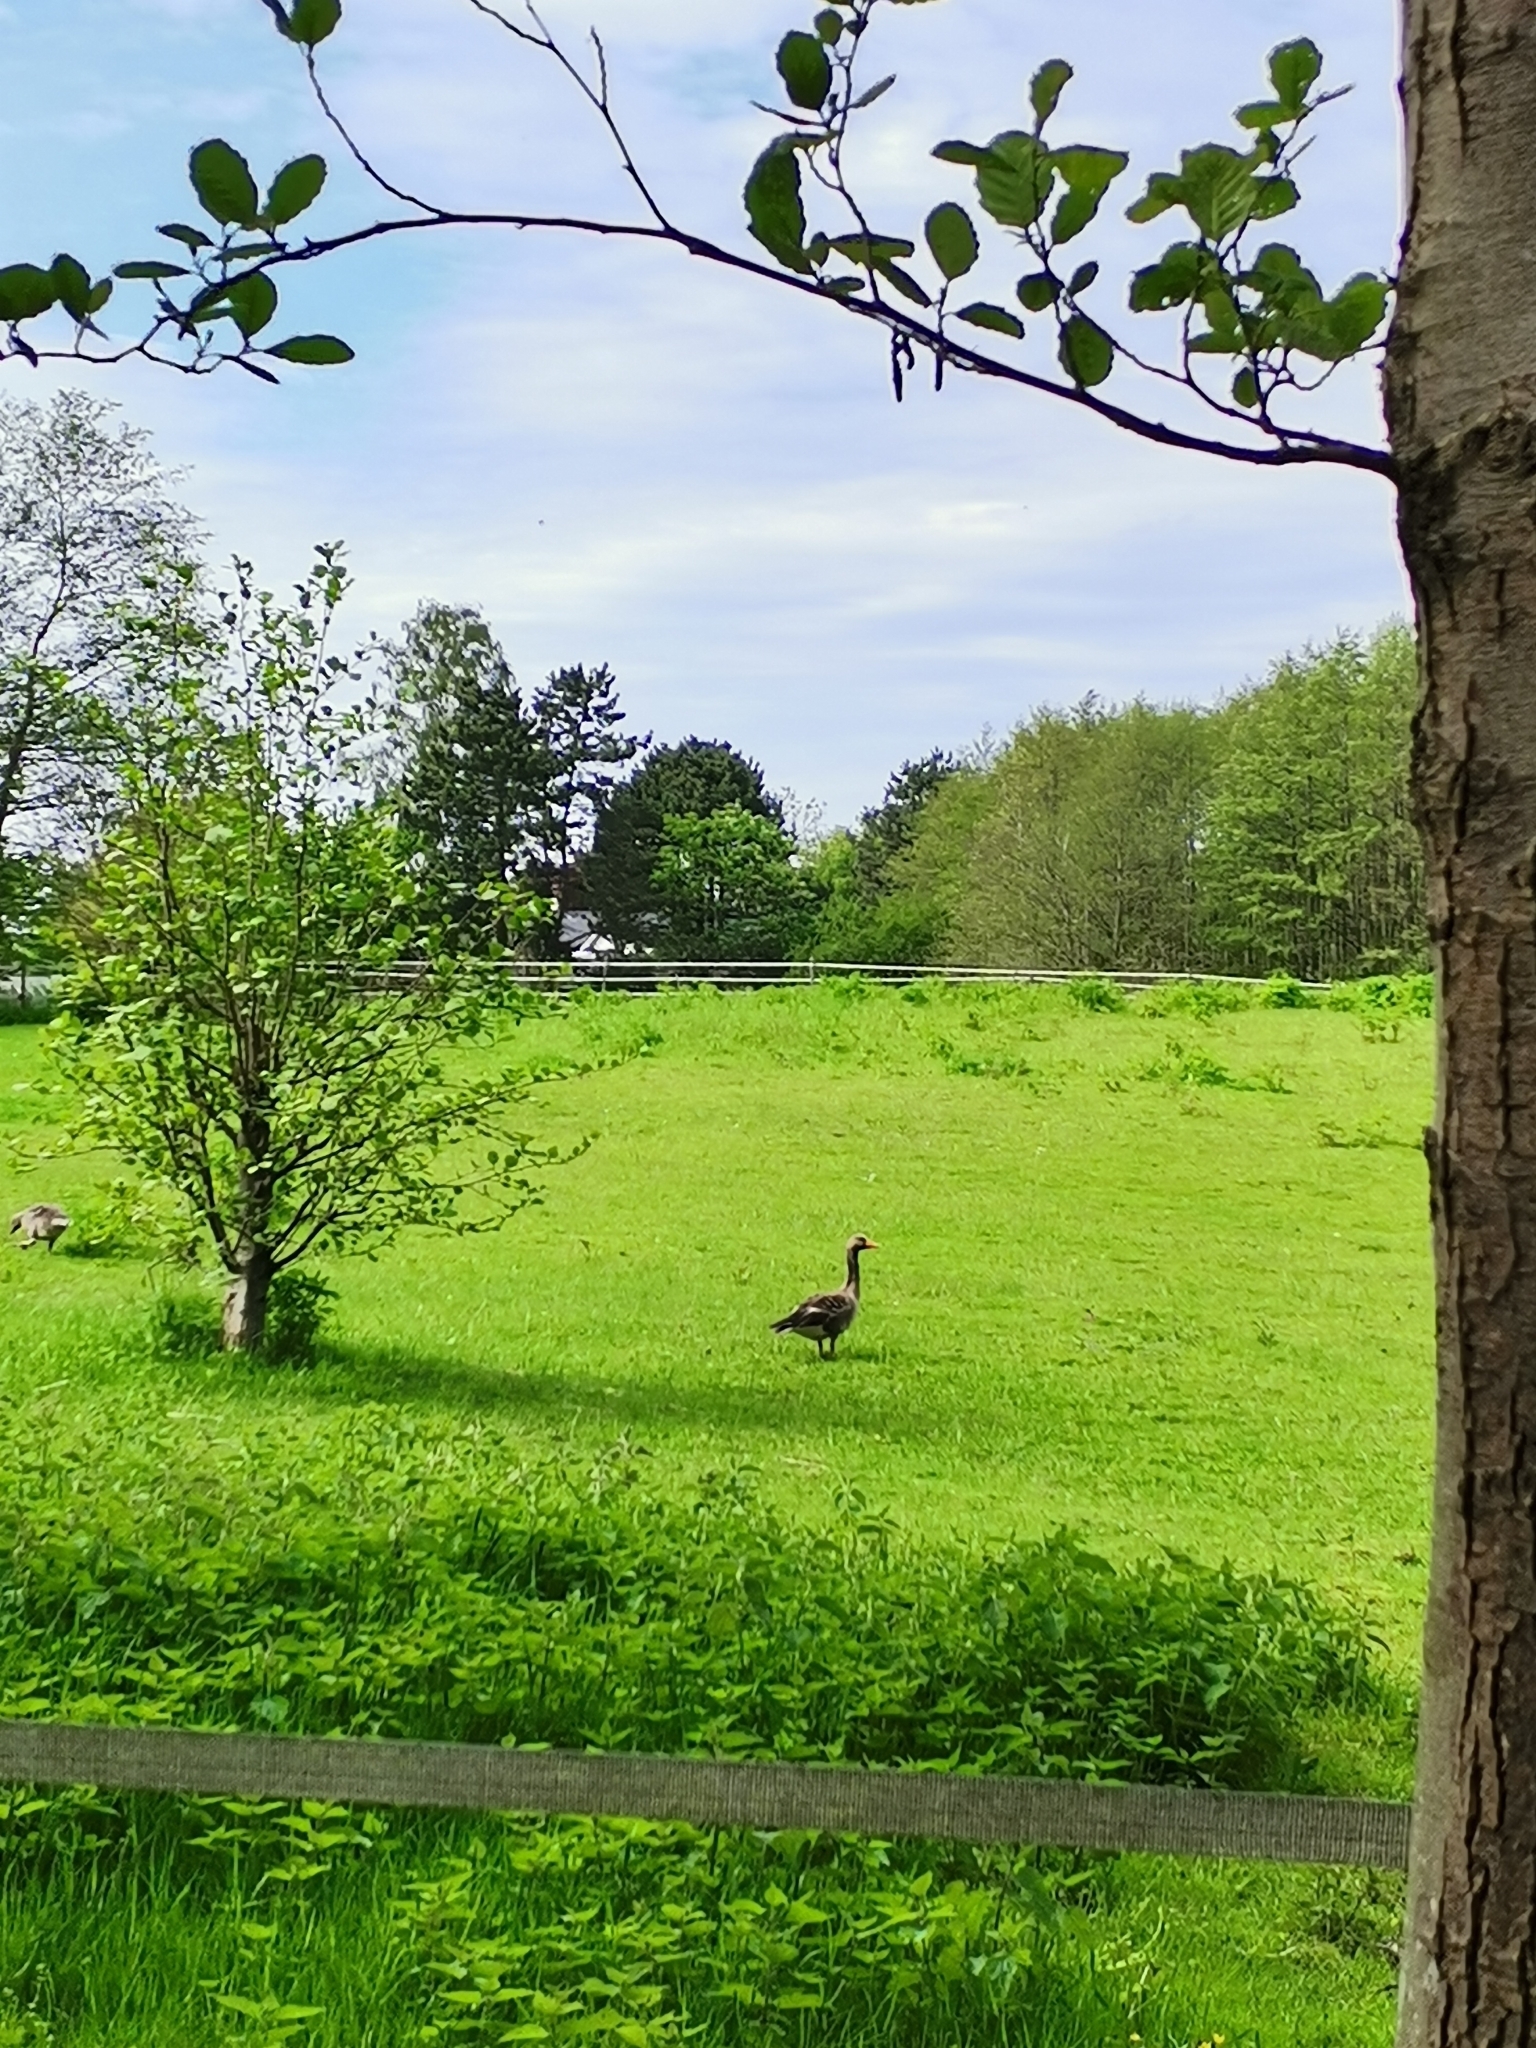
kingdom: Animalia
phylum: Chordata
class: Aves
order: Anseriformes
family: Anatidae
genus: Anser
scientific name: Anser anser
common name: Greylag goose
